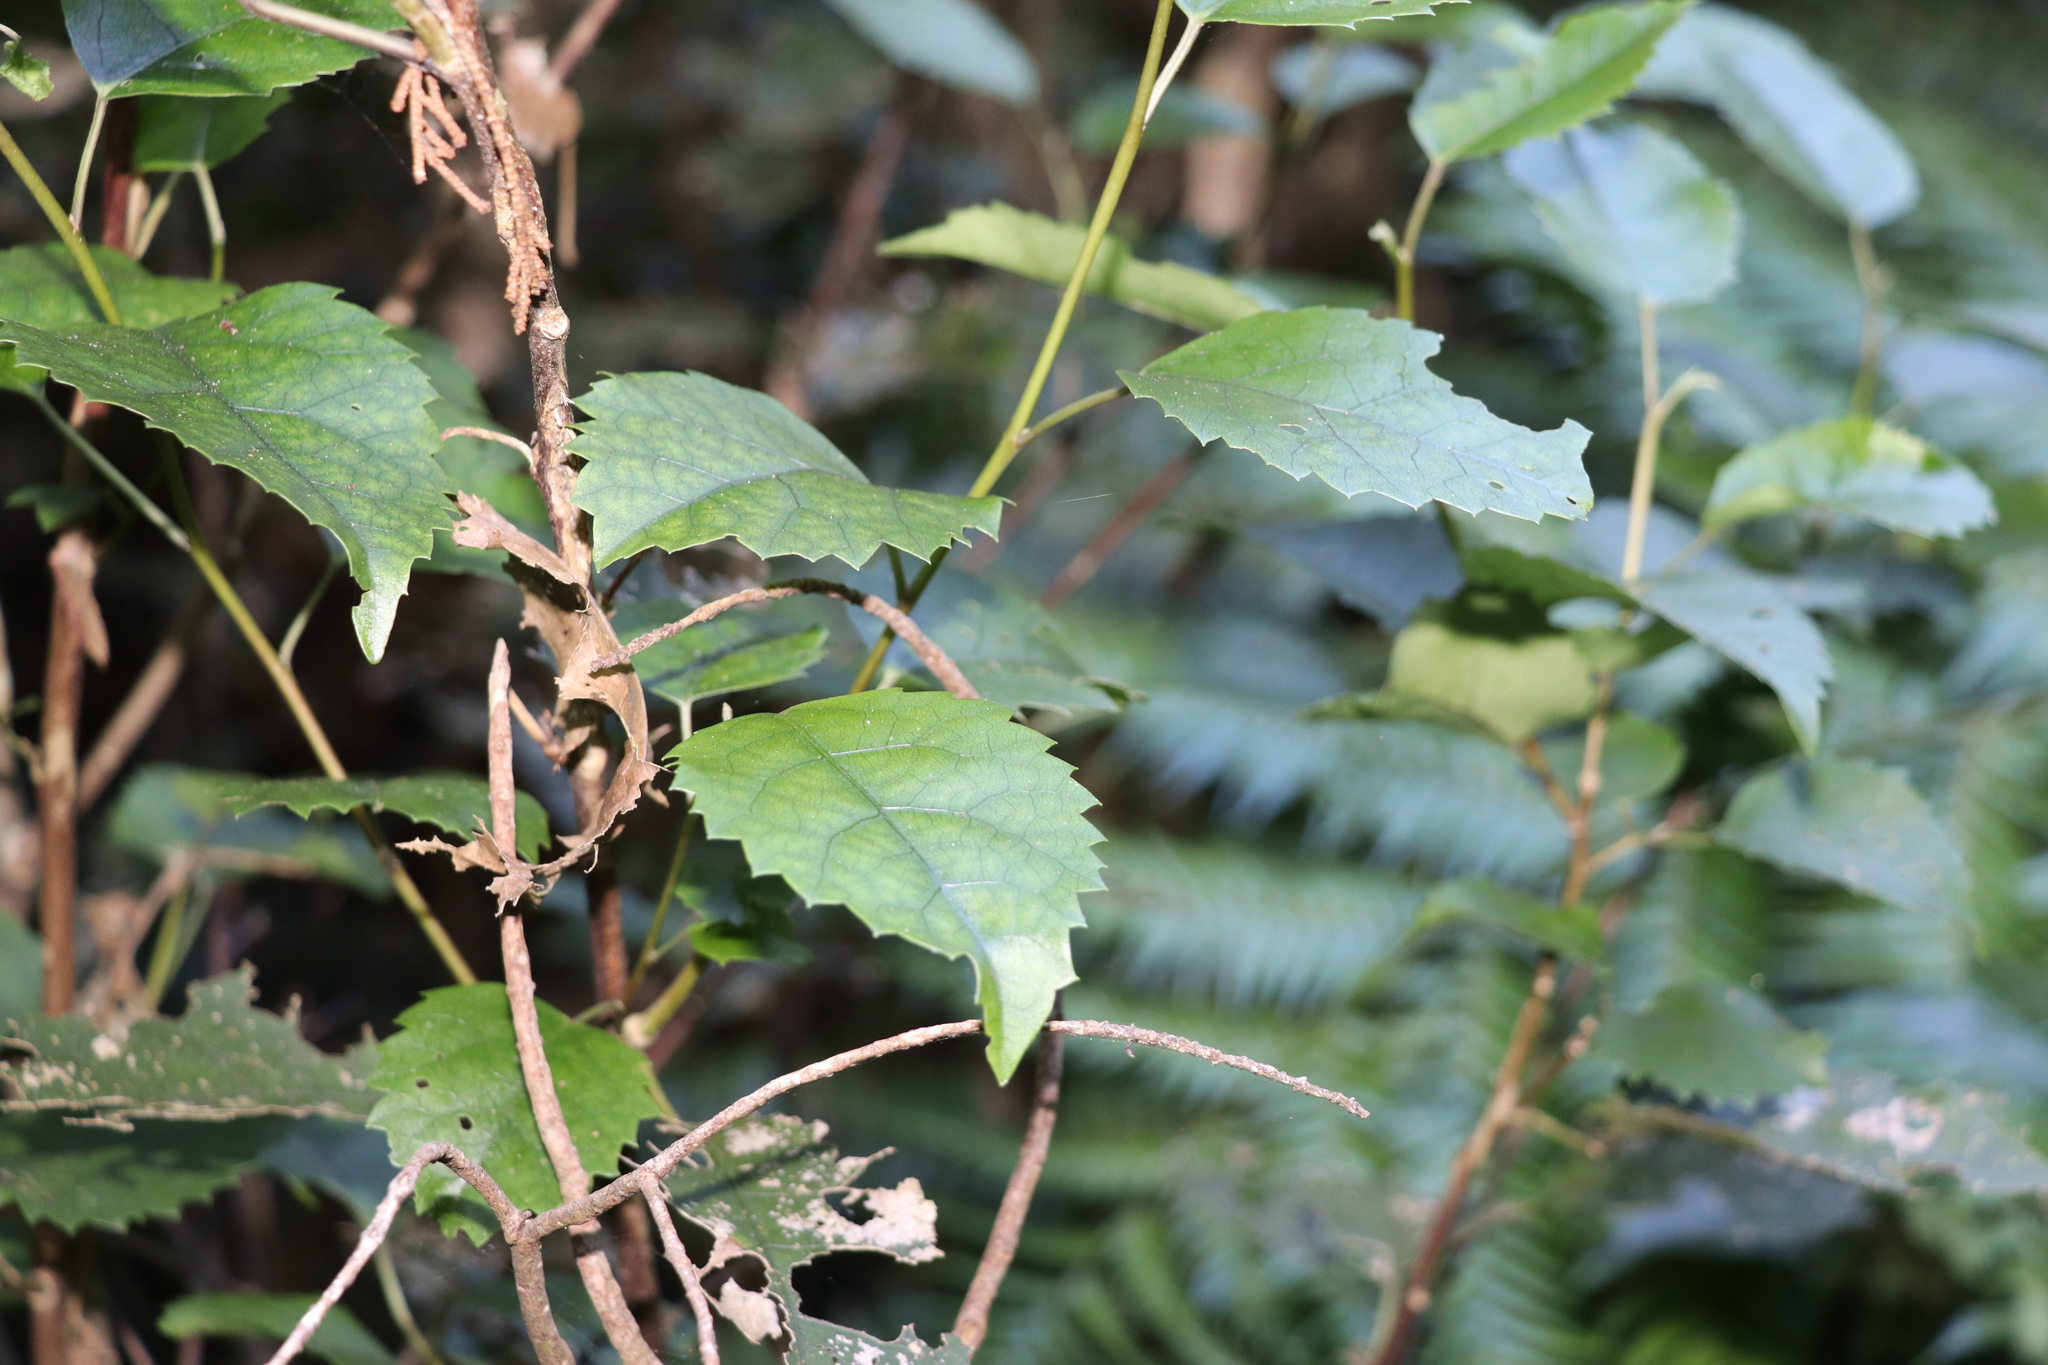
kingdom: Plantae
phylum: Tracheophyta
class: Magnoliopsida
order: Malvales
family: Malvaceae
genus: Hoheria
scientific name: Hoheria populnea
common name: Lacebark
